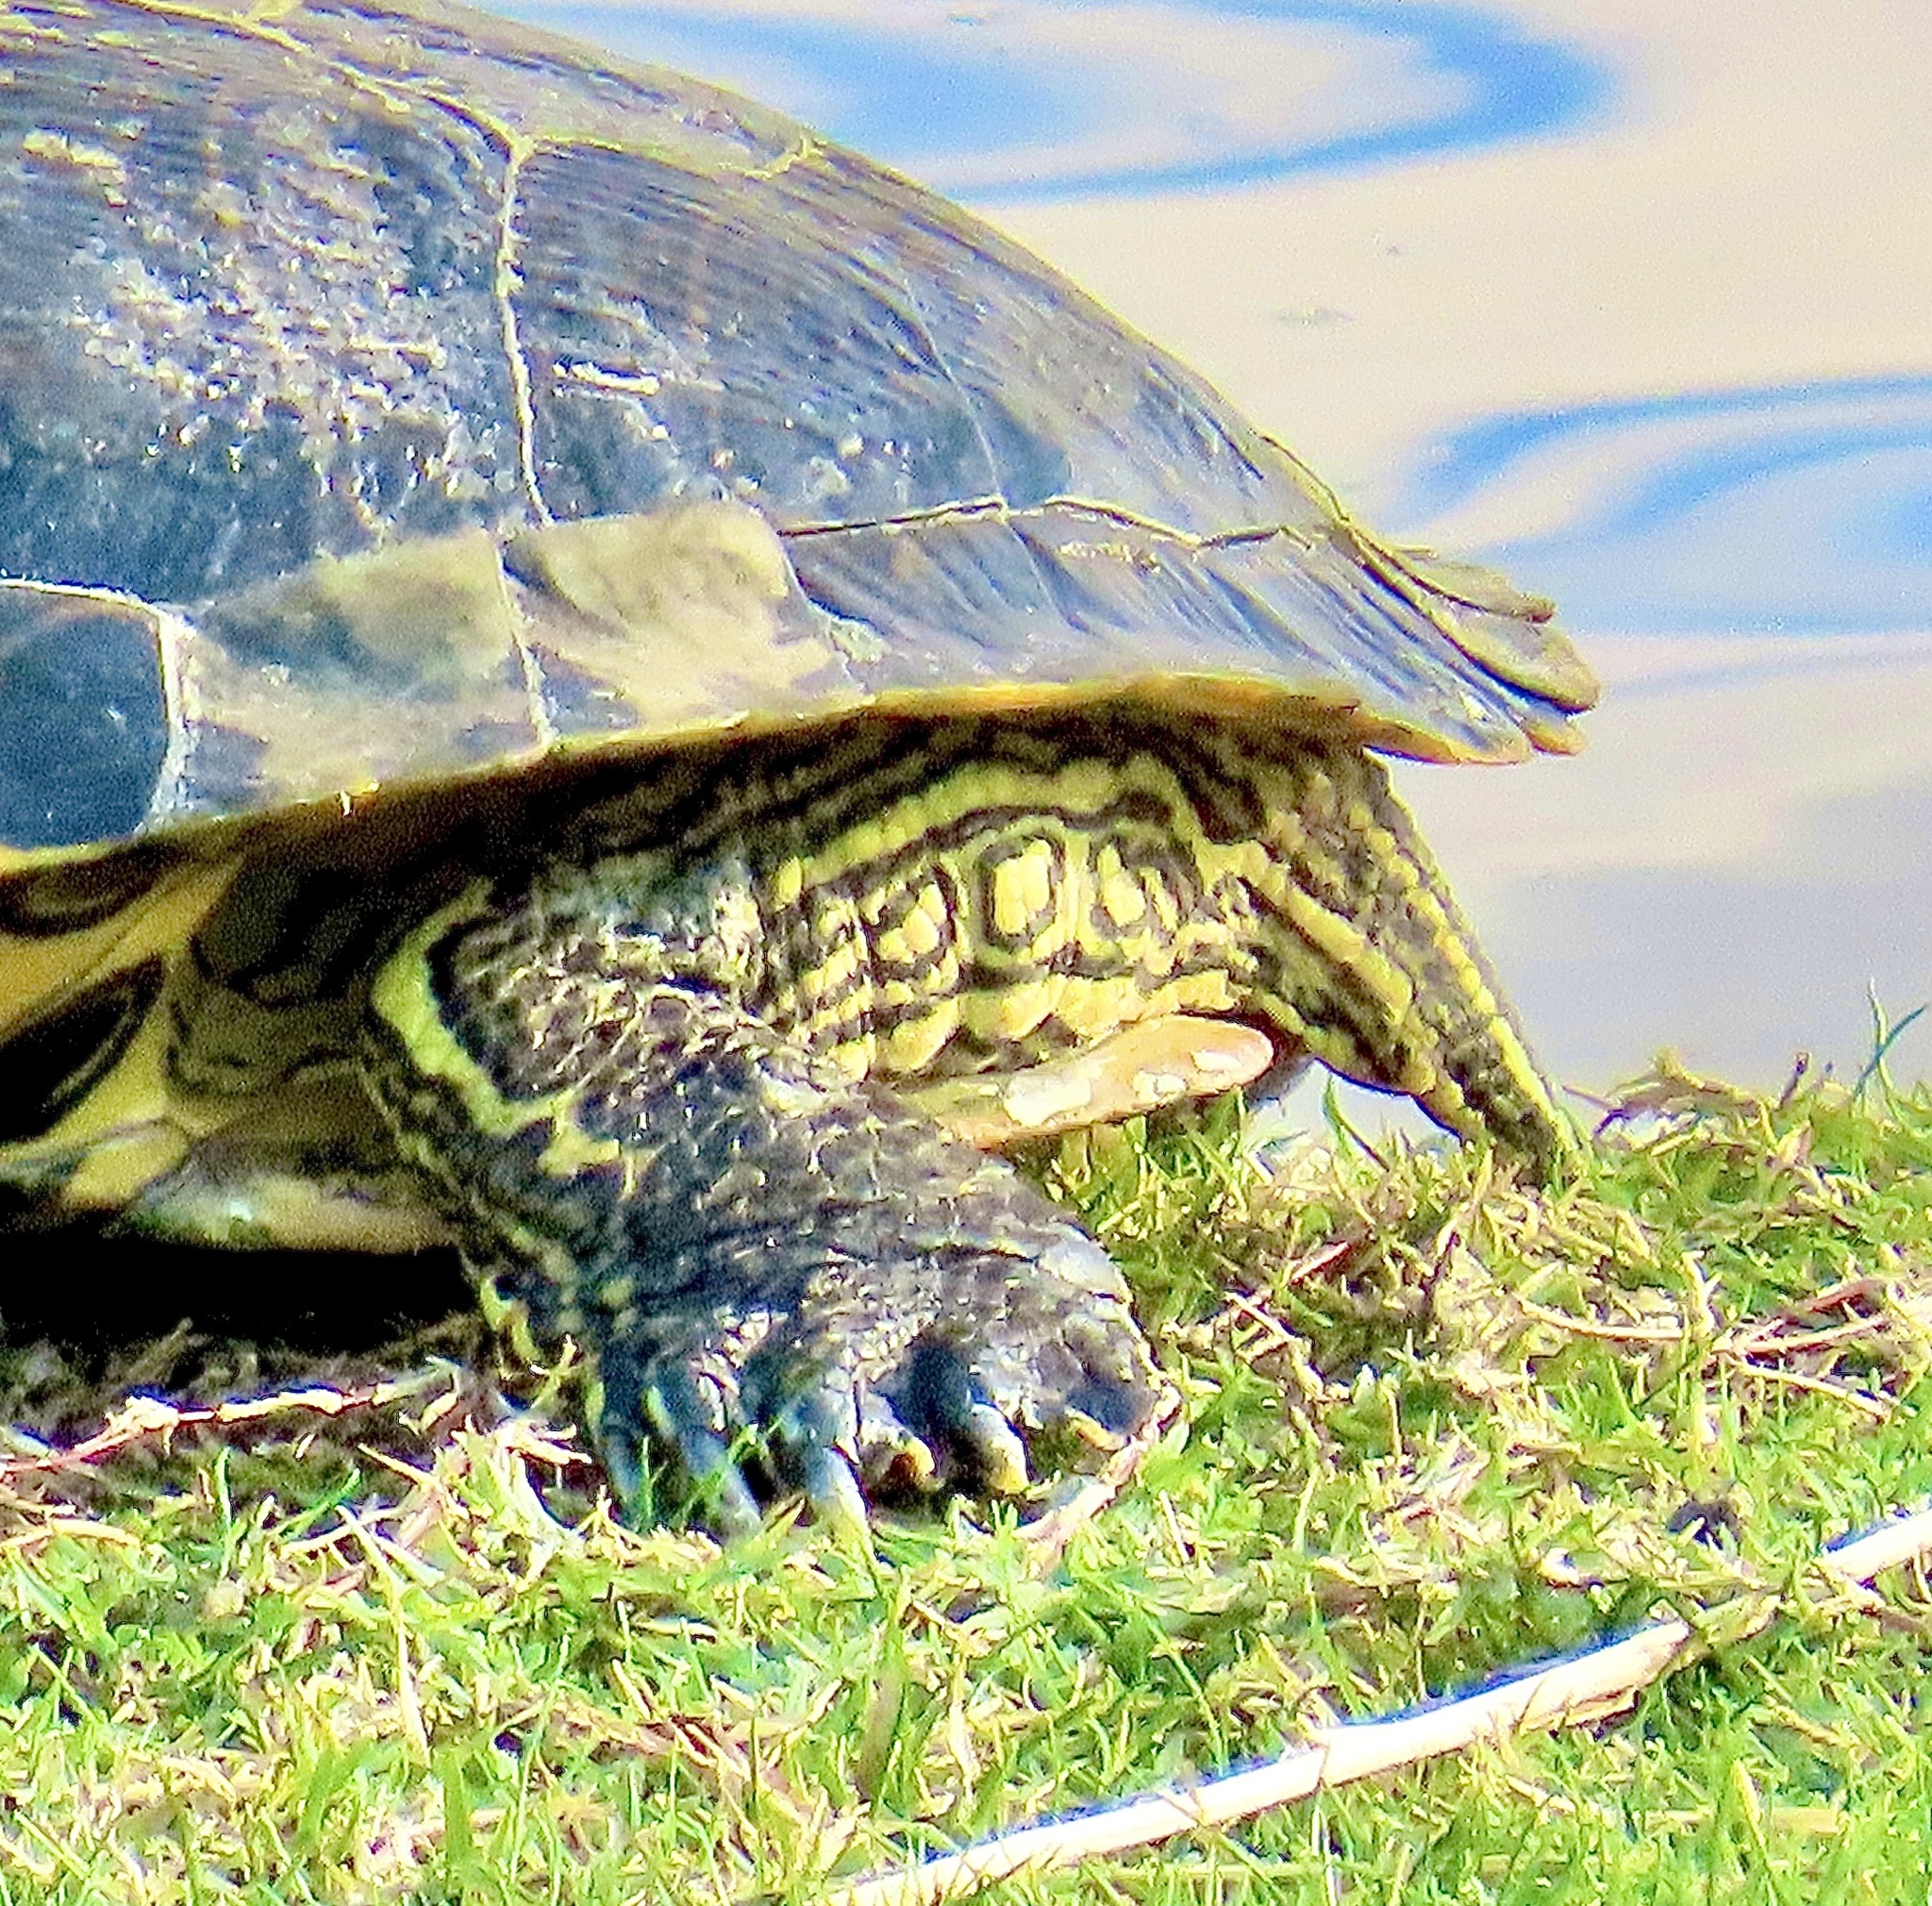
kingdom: Animalia
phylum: Chordata
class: Testudines
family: Emydidae
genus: Trachemys
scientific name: Trachemys scripta
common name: Slider
